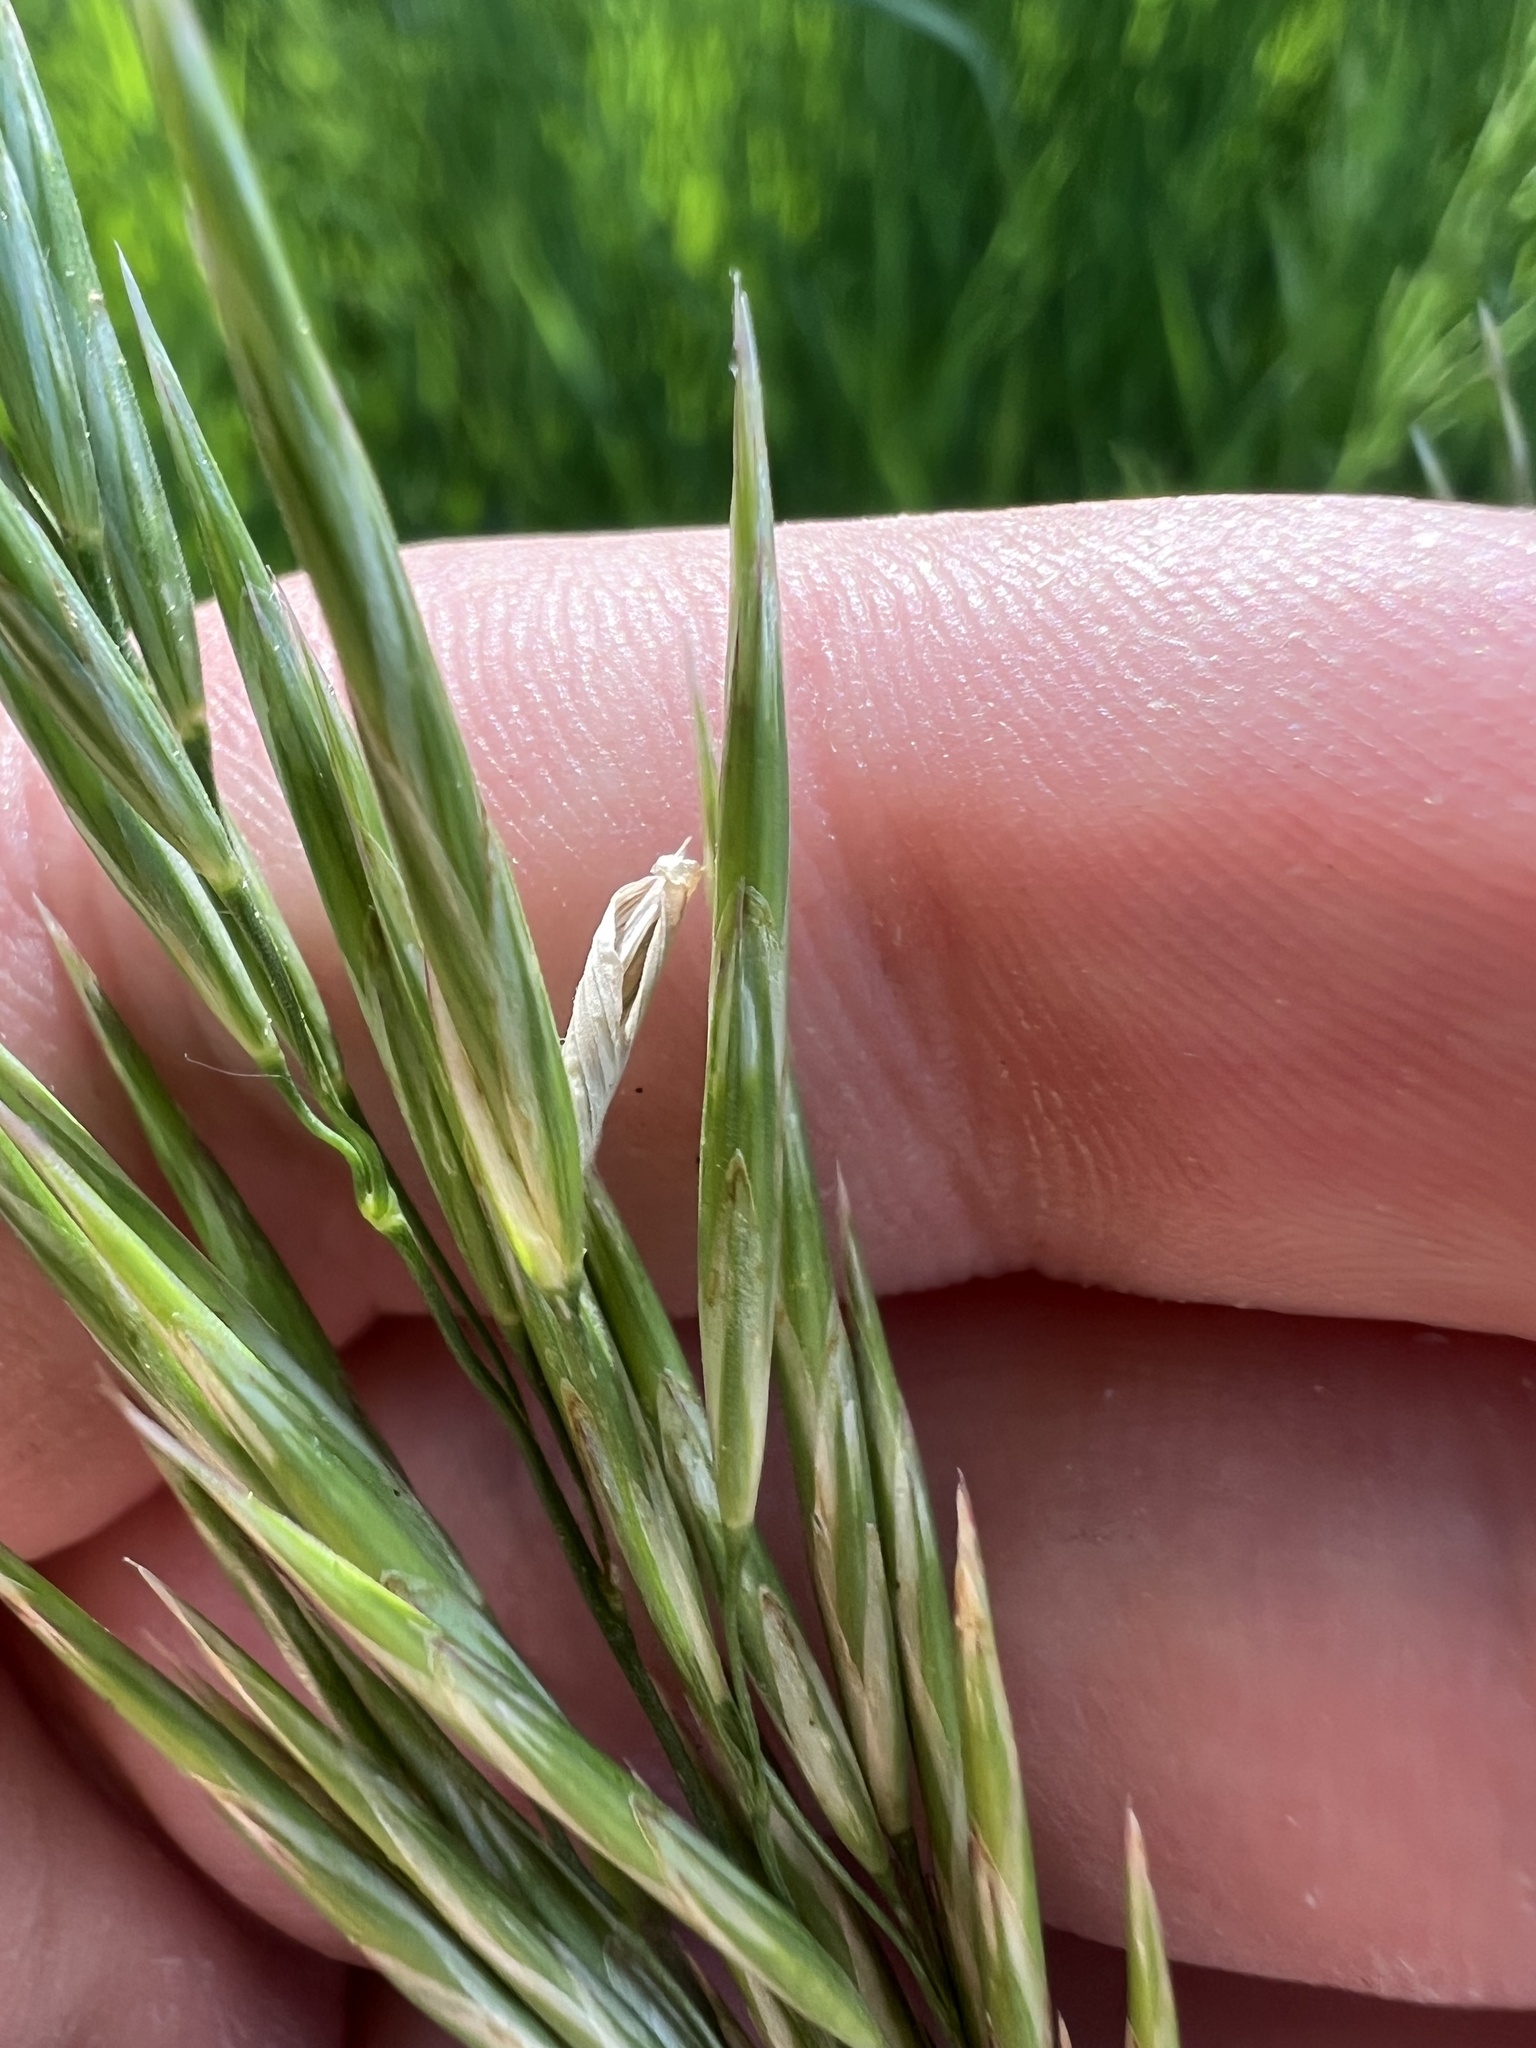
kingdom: Plantae
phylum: Tracheophyta
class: Liliopsida
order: Poales
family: Poaceae
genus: Bromus
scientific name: Bromus inermis
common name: Smooth brome
